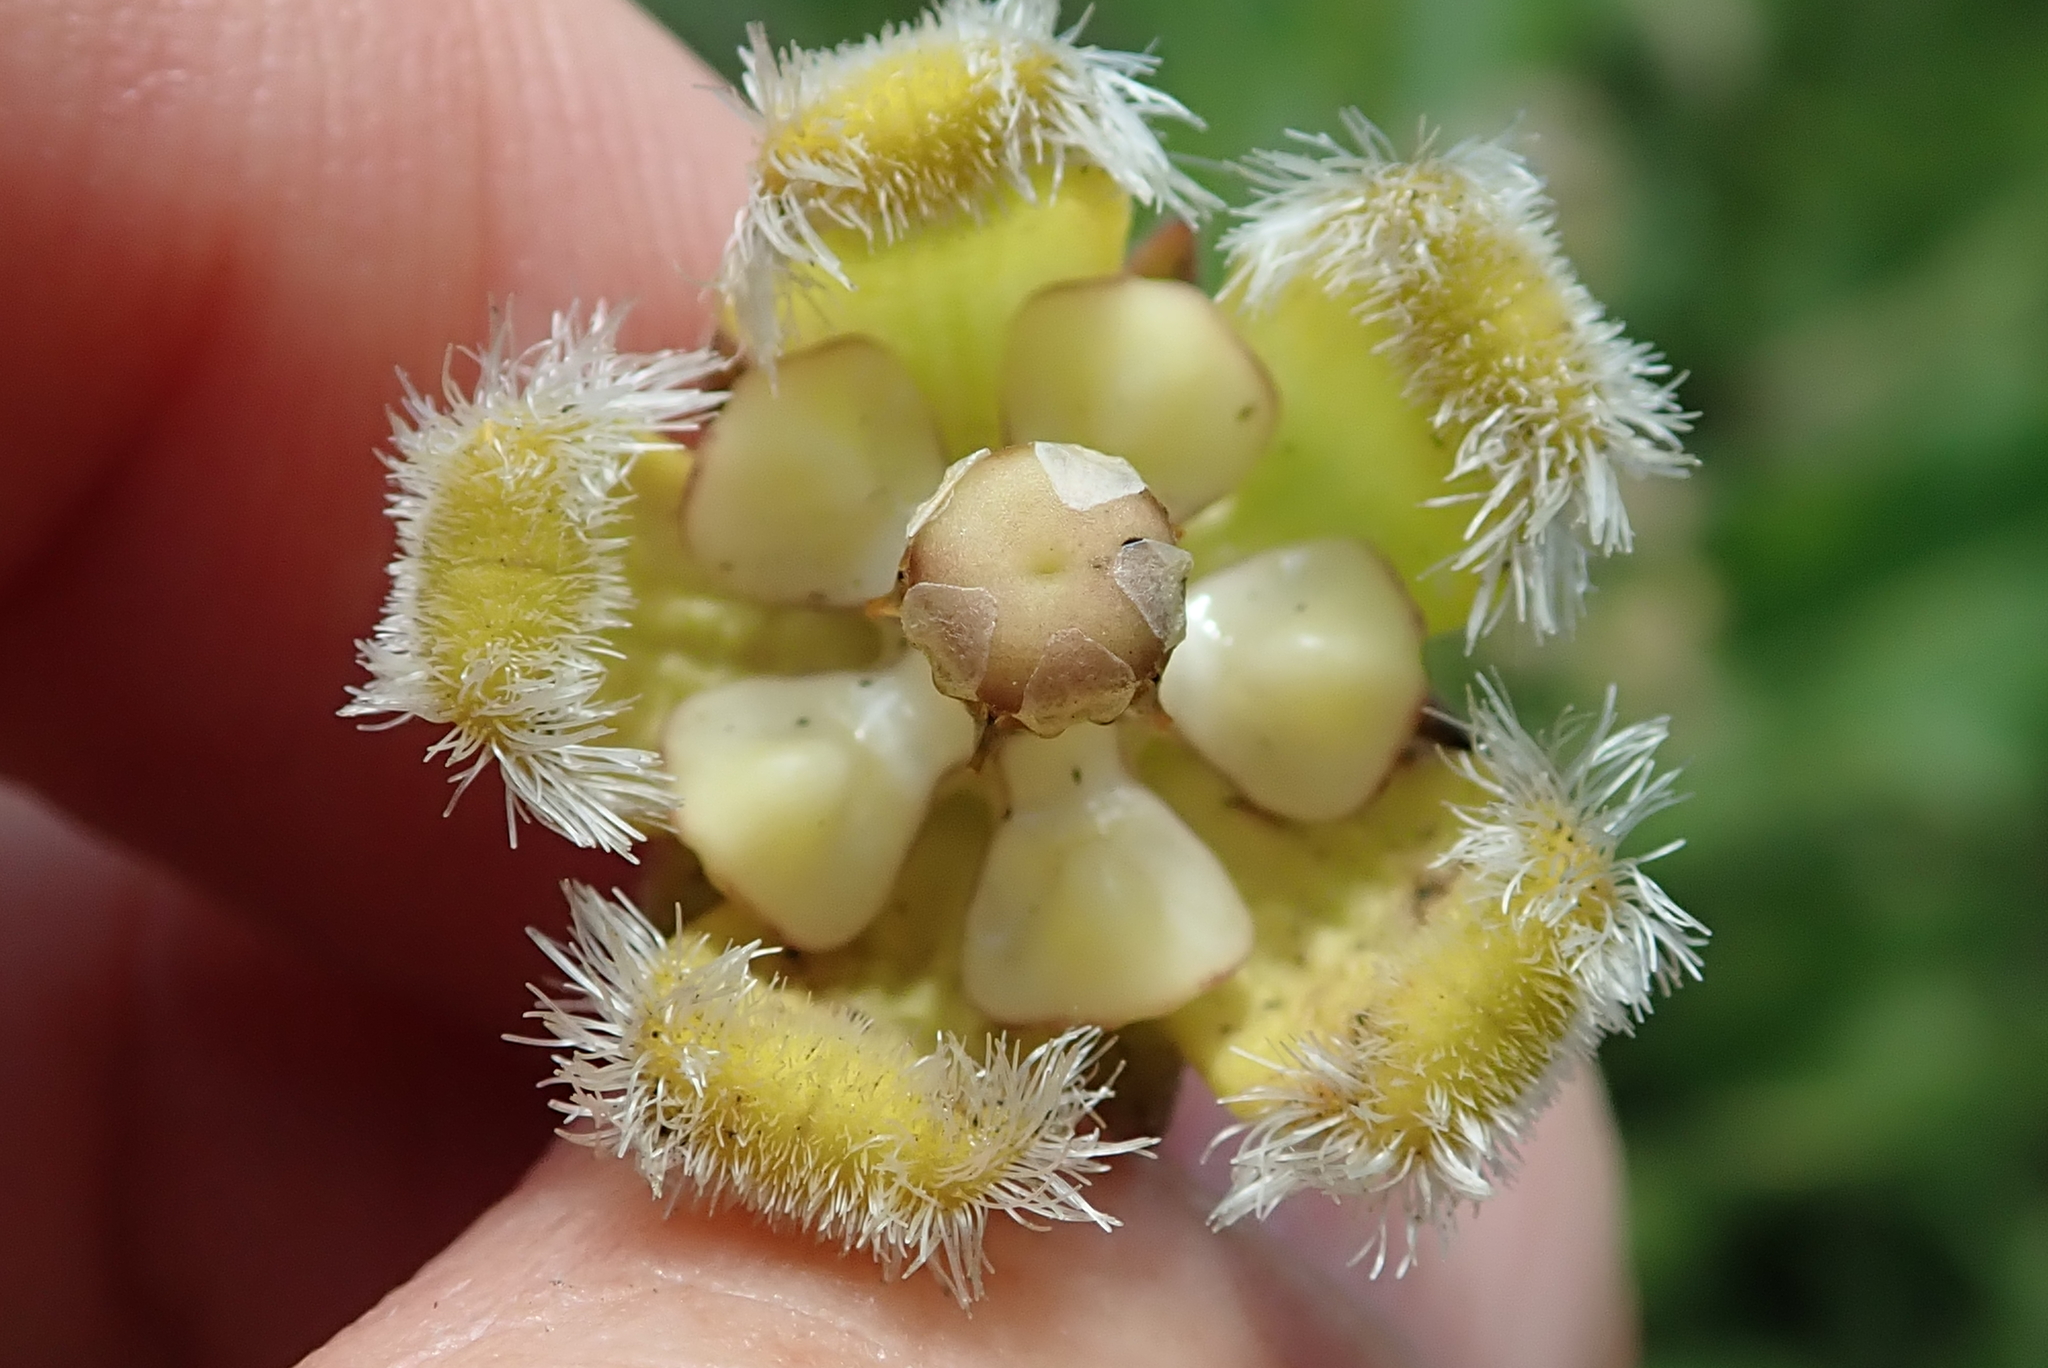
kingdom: Plantae
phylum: Tracheophyta
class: Magnoliopsida
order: Gentianales
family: Apocynaceae
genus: Xysmalobium
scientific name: Xysmalobium undulatum
